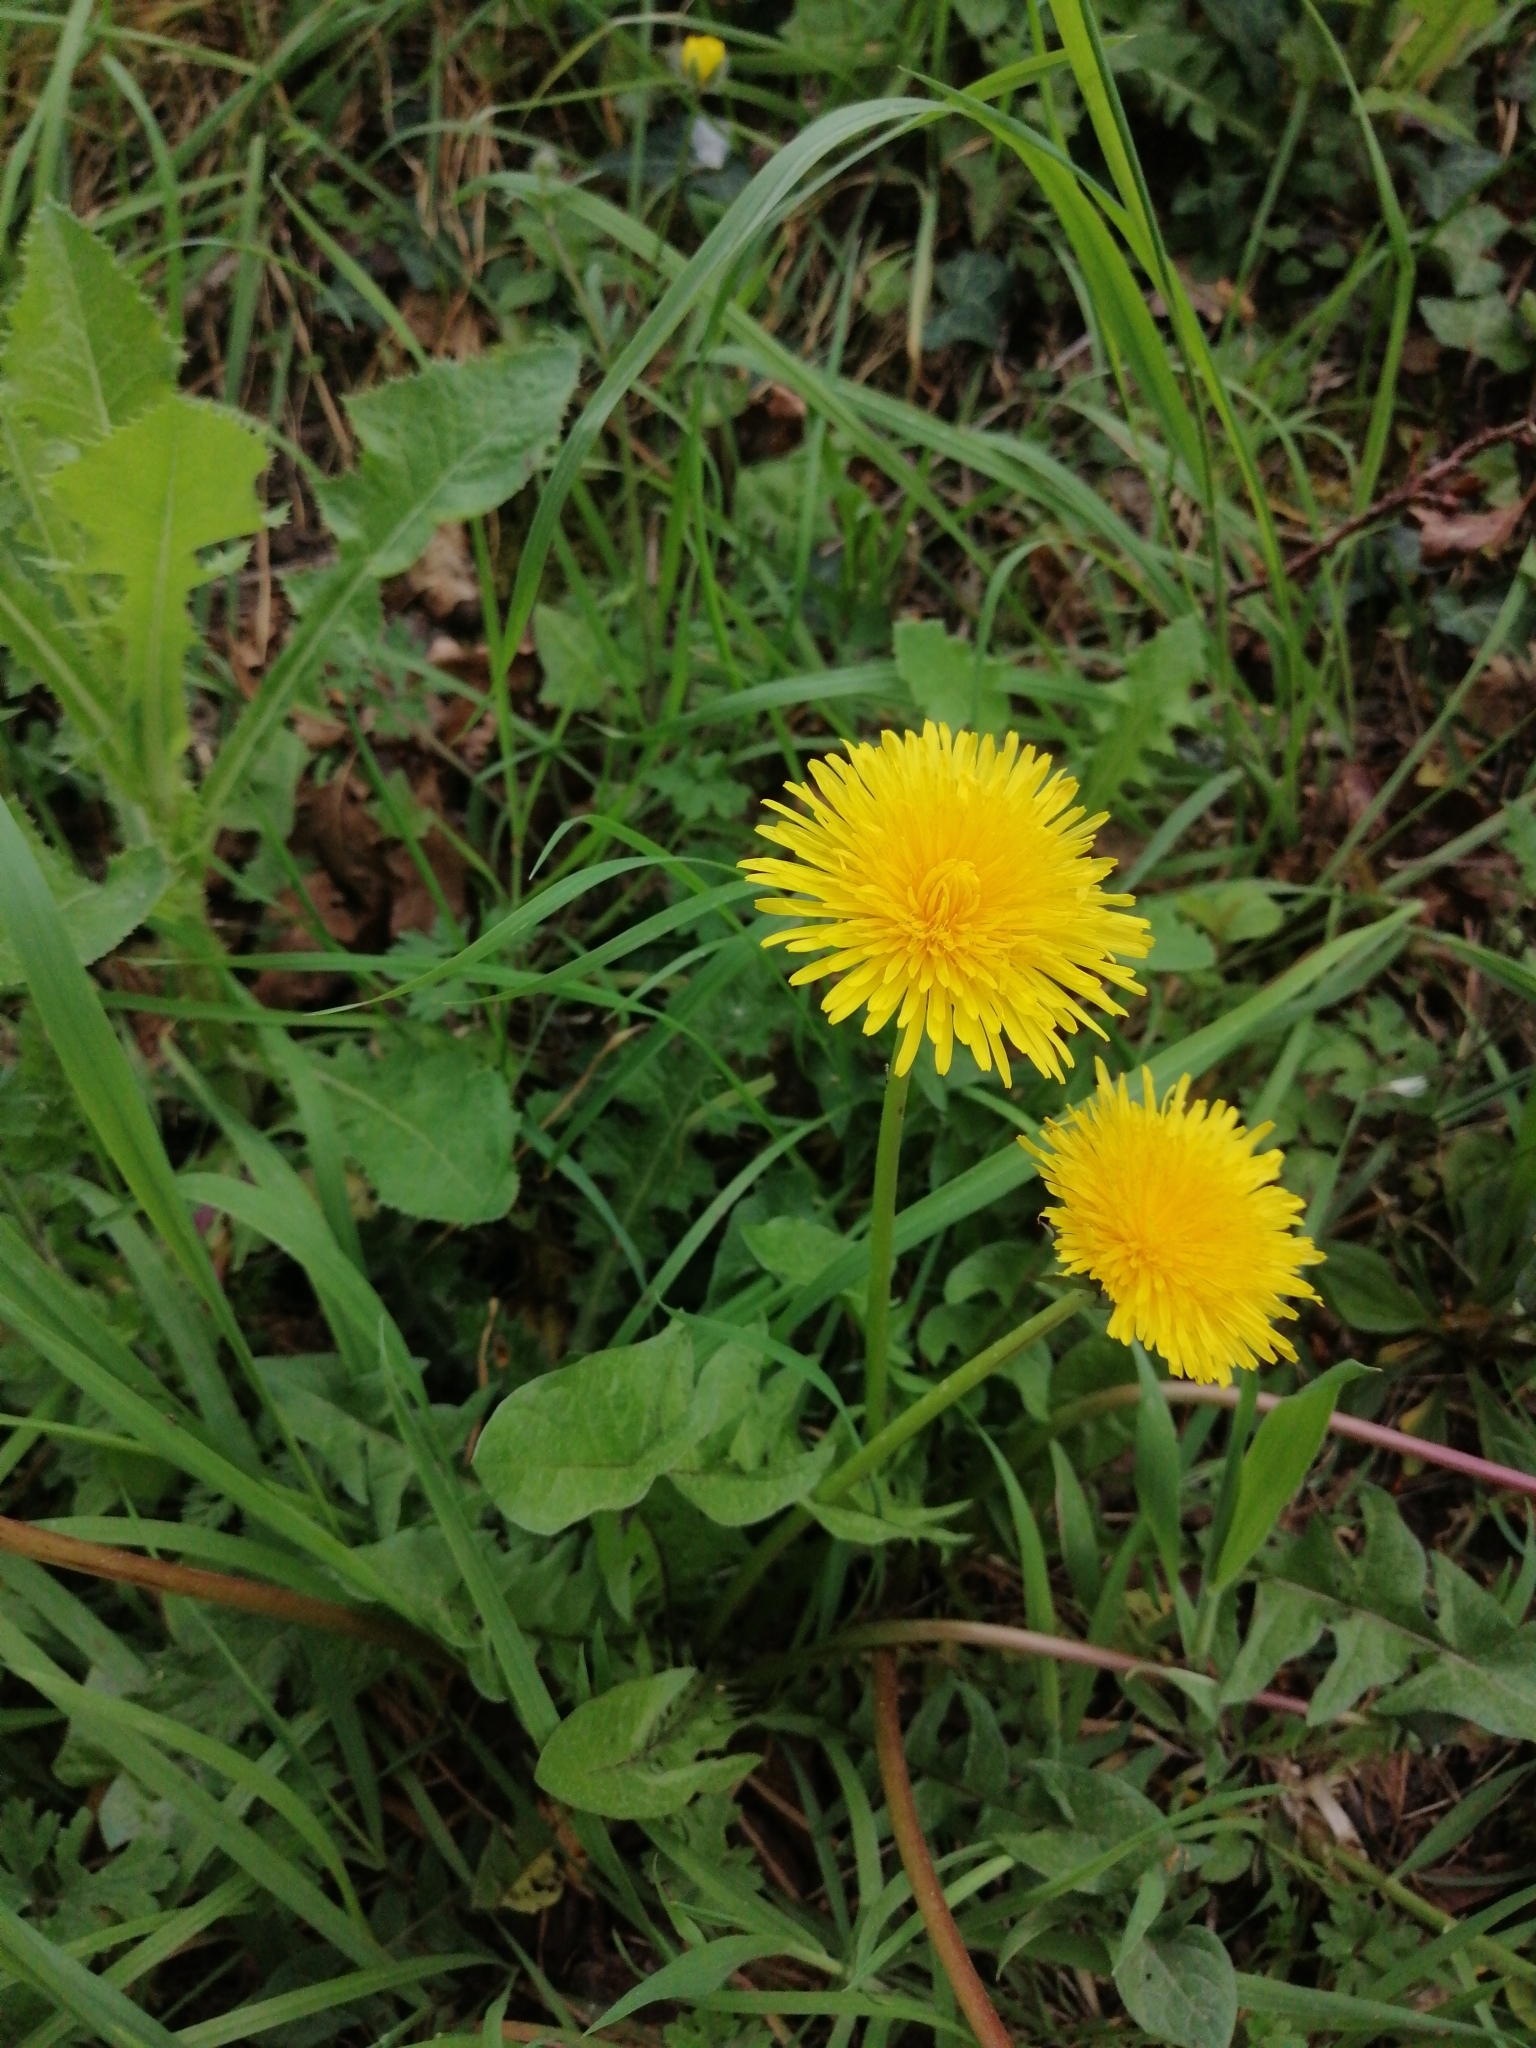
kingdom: Plantae
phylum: Tracheophyta
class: Magnoliopsida
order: Asterales
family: Asteraceae
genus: Taraxacum
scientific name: Taraxacum officinale
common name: Common dandelion
